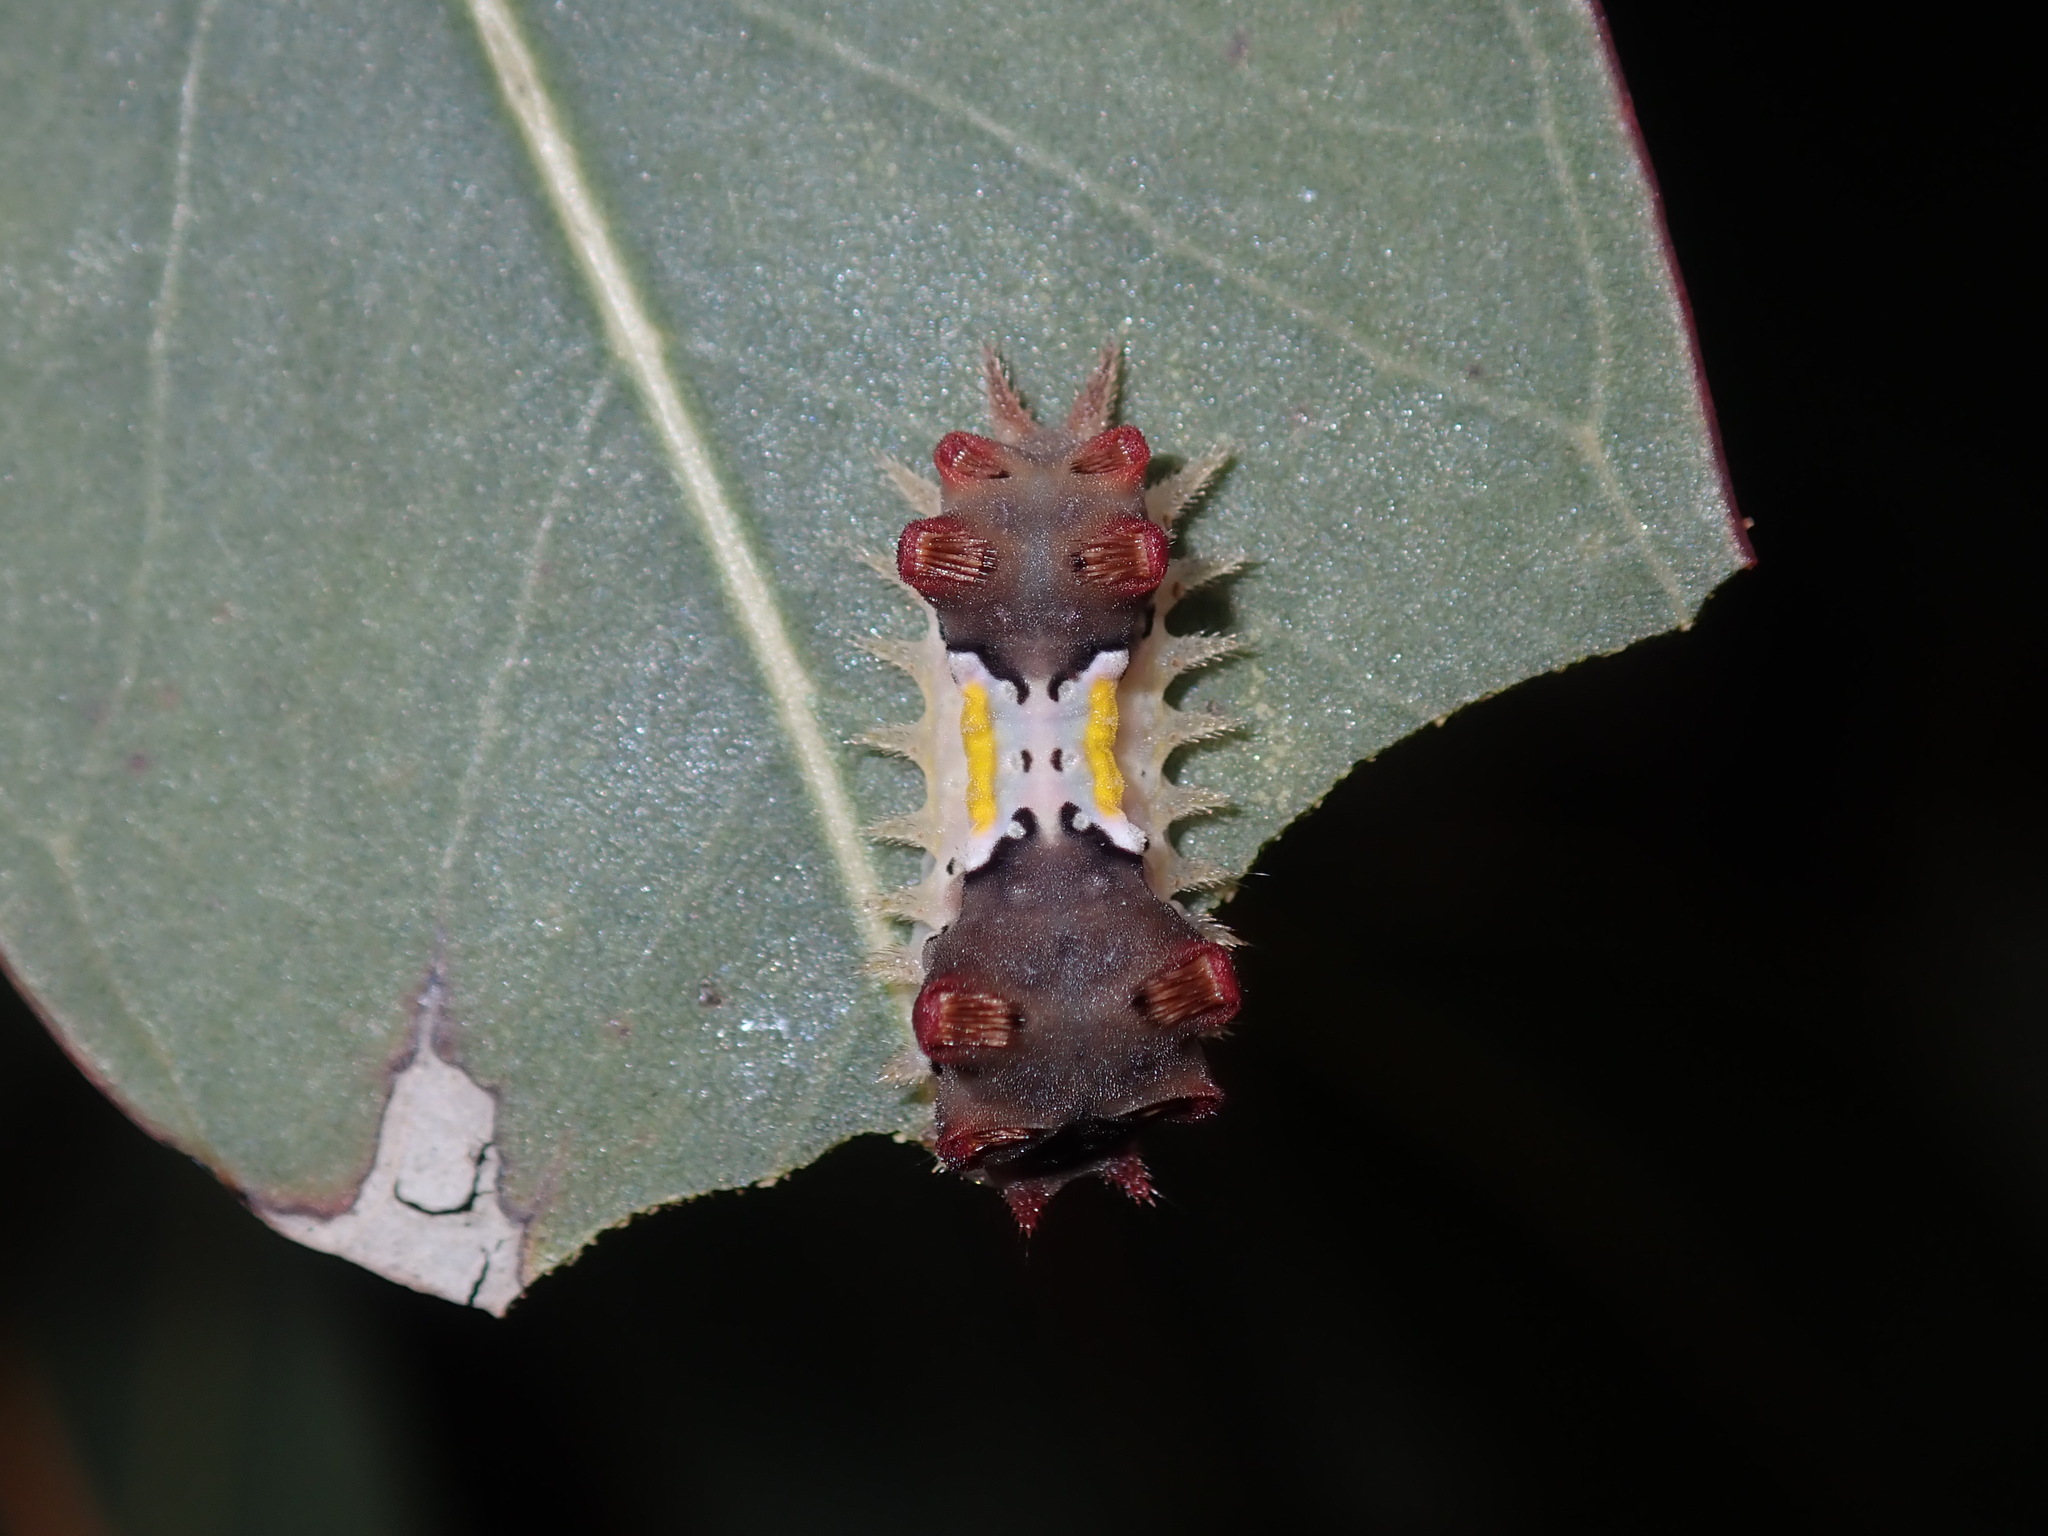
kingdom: Animalia
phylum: Arthropoda
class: Insecta
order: Lepidoptera
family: Limacodidae
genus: Doratifera
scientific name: Doratifera vulnerans
